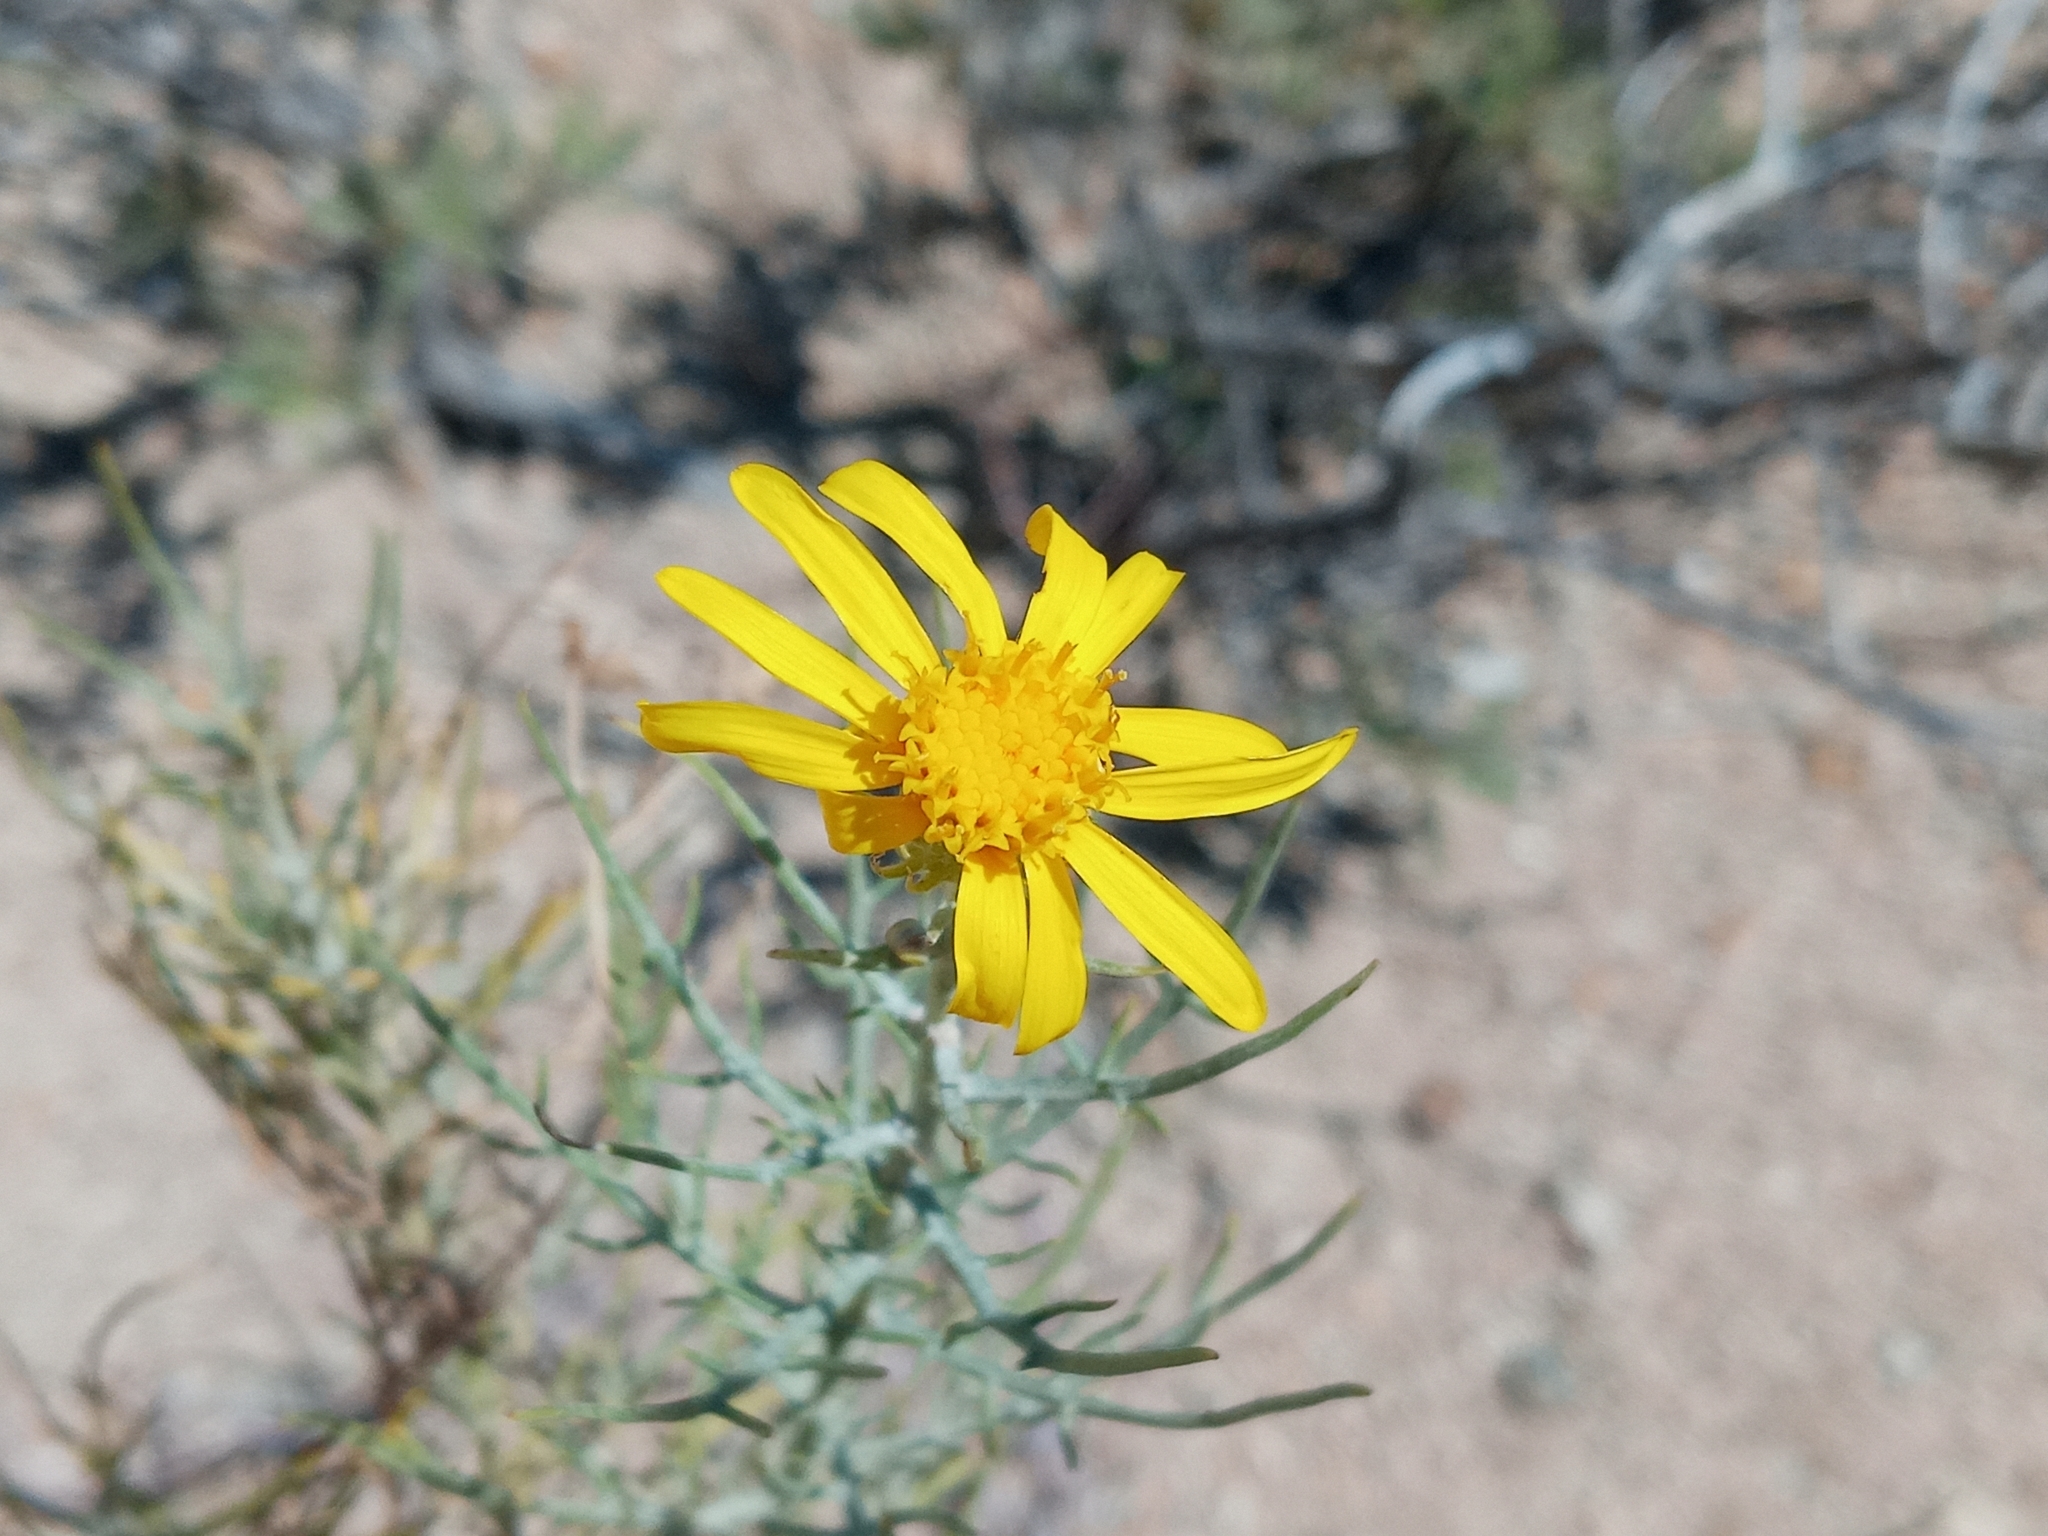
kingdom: Plantae
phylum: Tracheophyta
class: Magnoliopsida
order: Asterales
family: Asteraceae
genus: Senecio
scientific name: Senecio flaccidus
